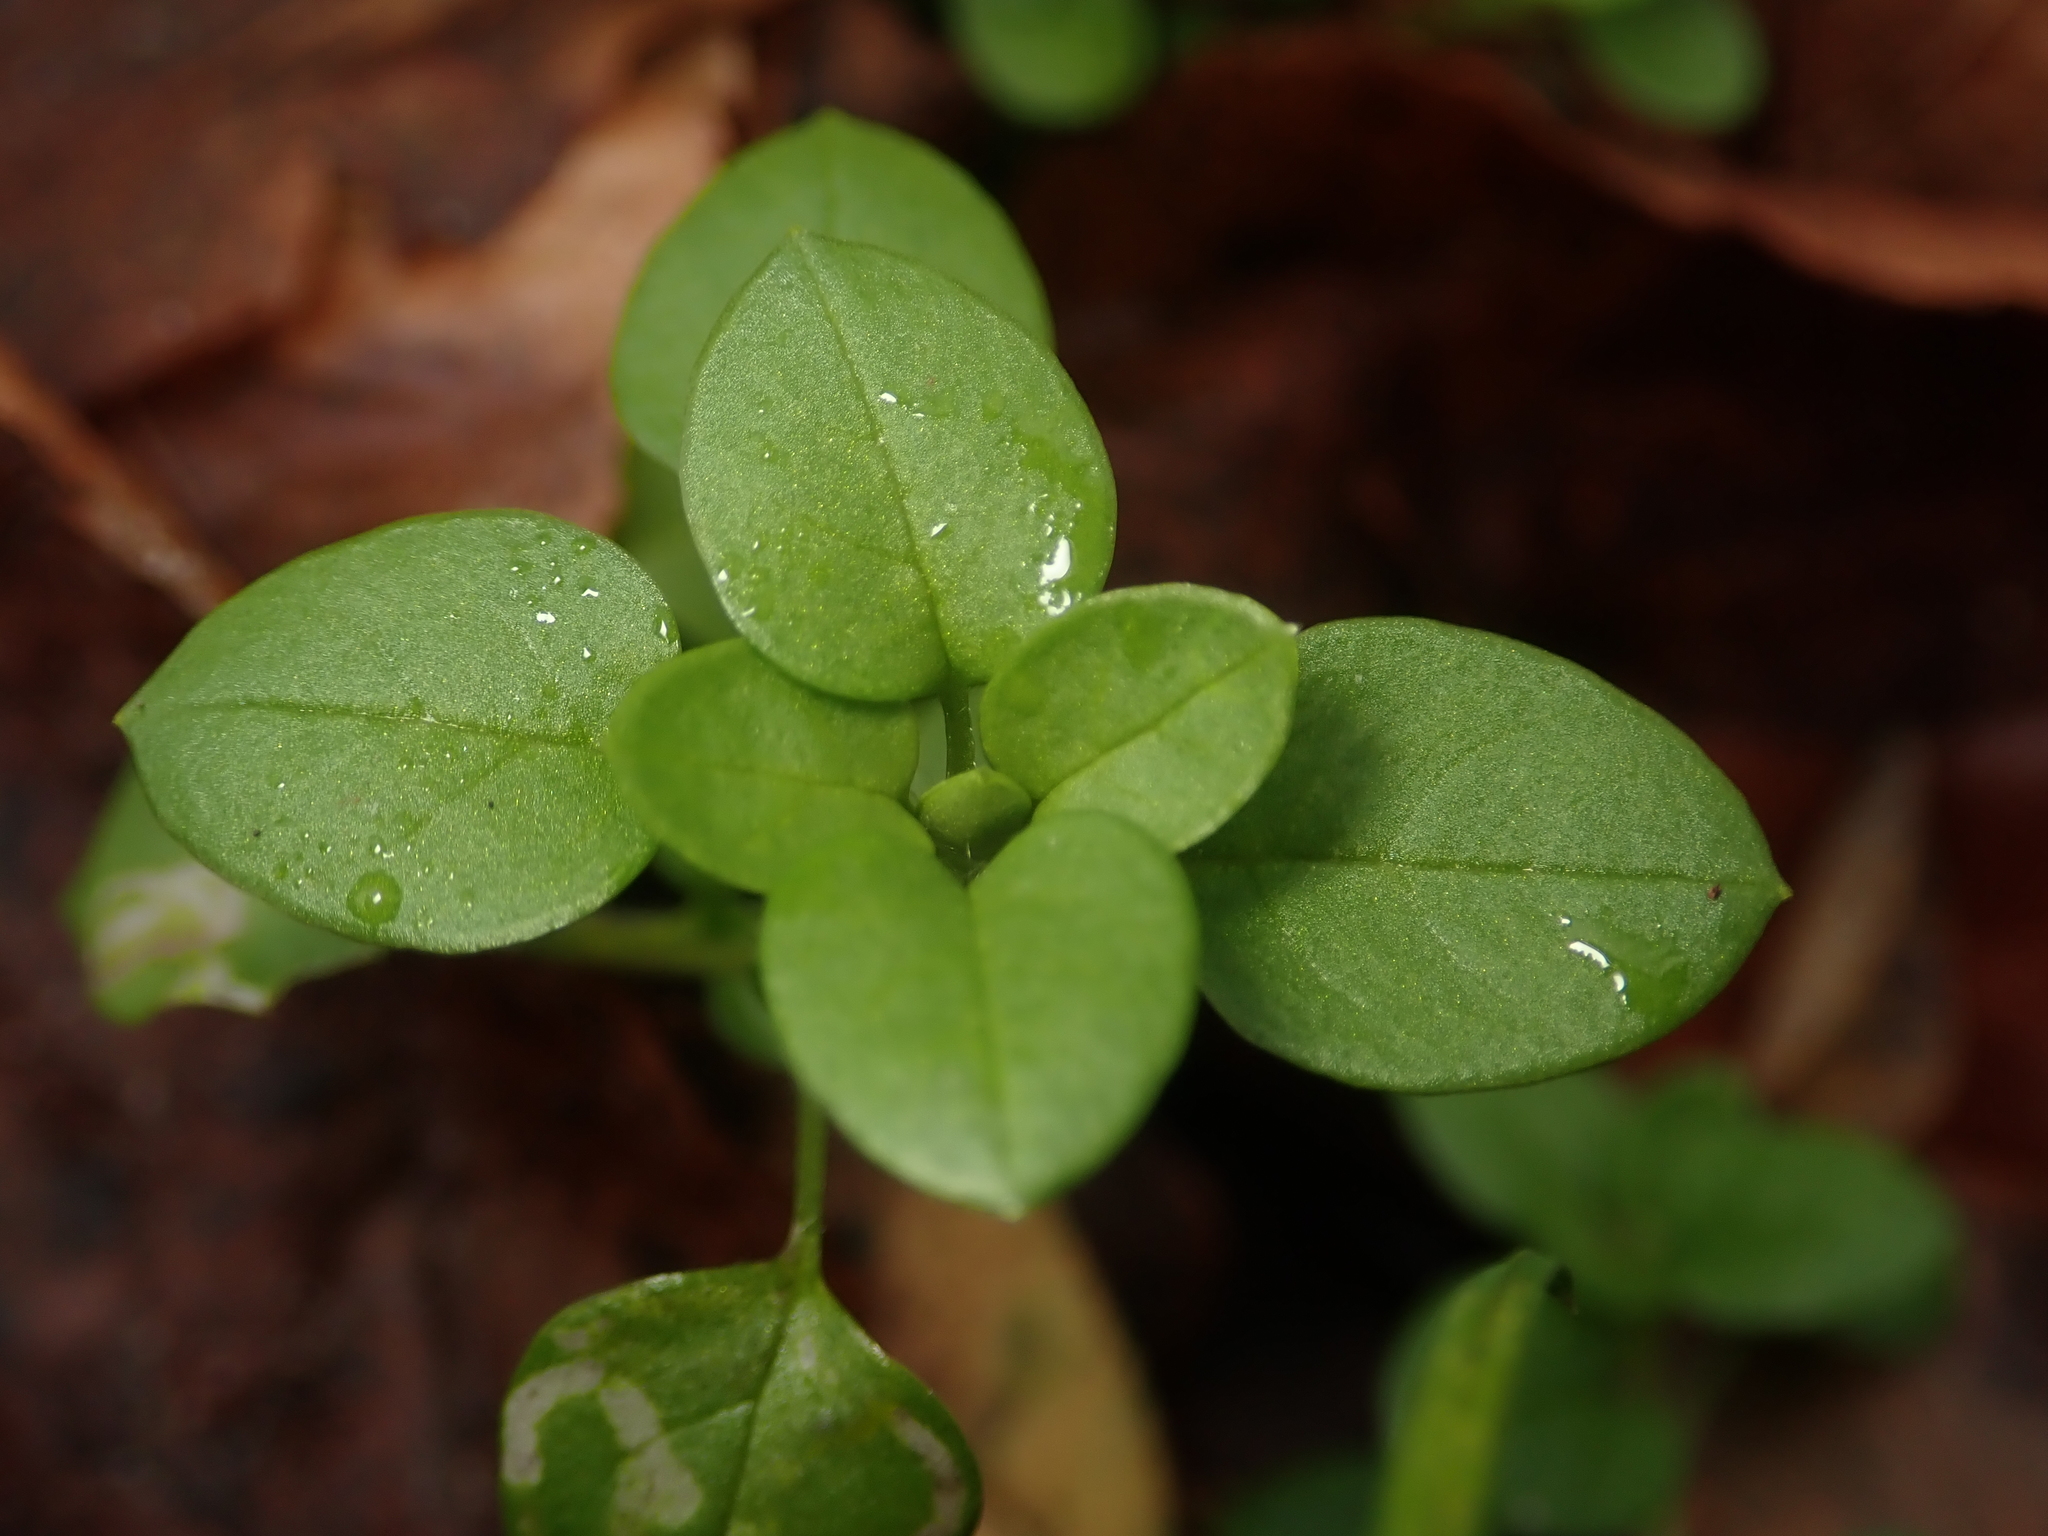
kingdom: Plantae
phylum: Tracheophyta
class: Magnoliopsida
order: Caryophyllales
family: Caryophyllaceae
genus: Stellaria
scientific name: Stellaria media
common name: Common chickweed
